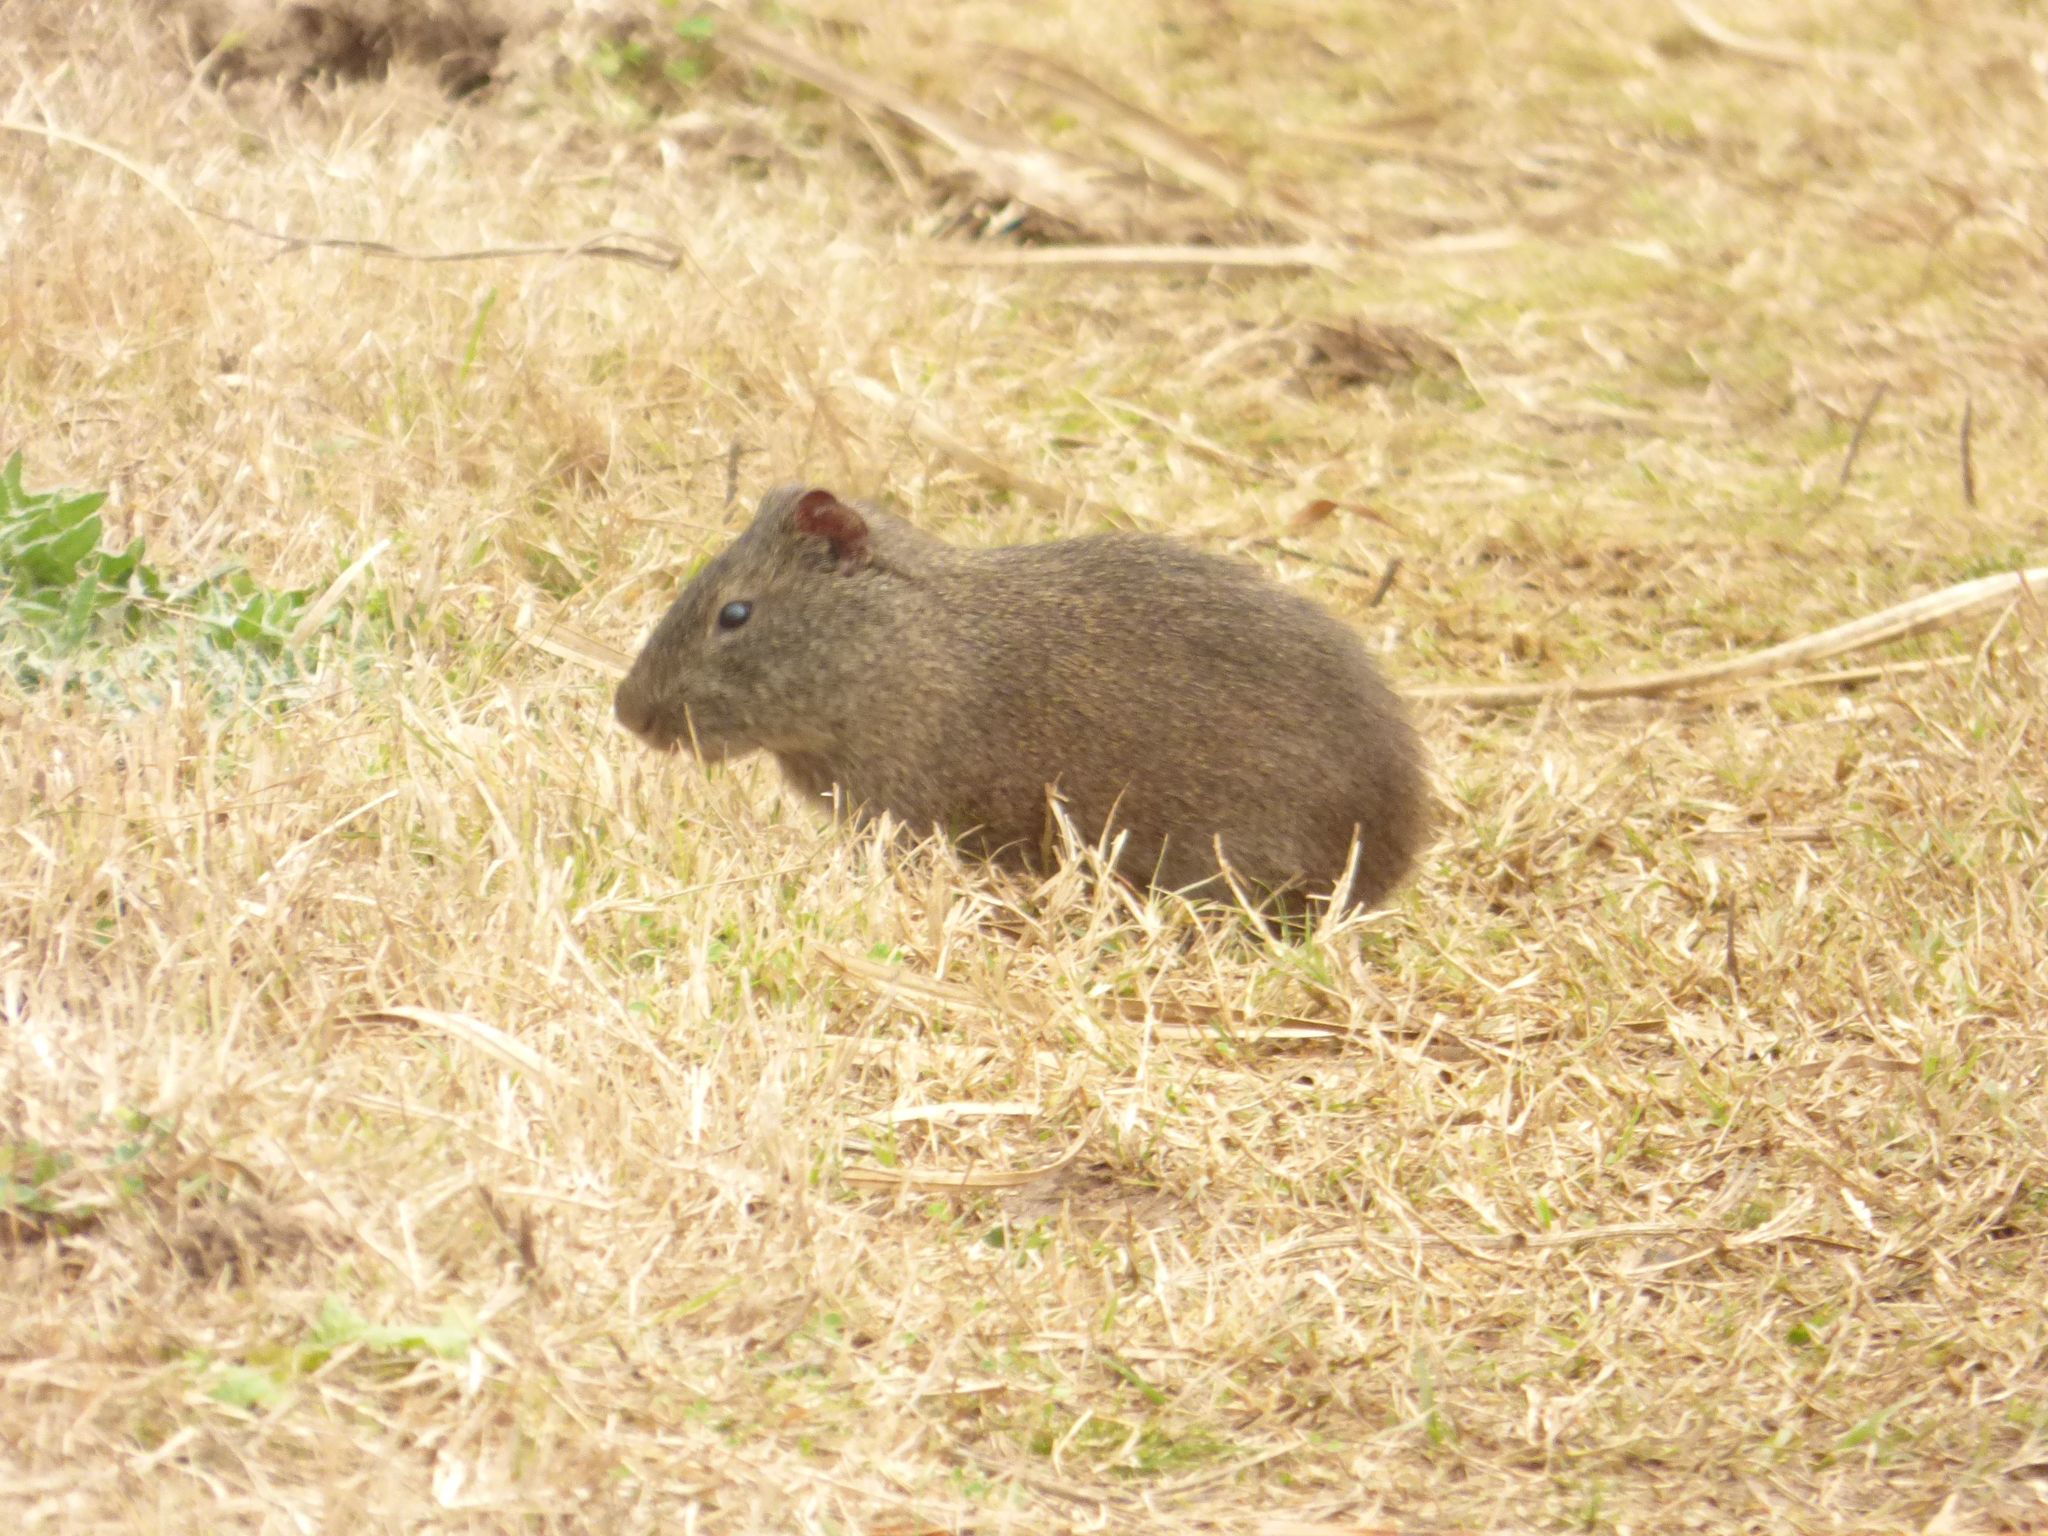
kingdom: Animalia
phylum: Chordata
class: Mammalia
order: Rodentia
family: Caviidae
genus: Cavia
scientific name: Cavia aperea
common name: Brazilian guinea pig
